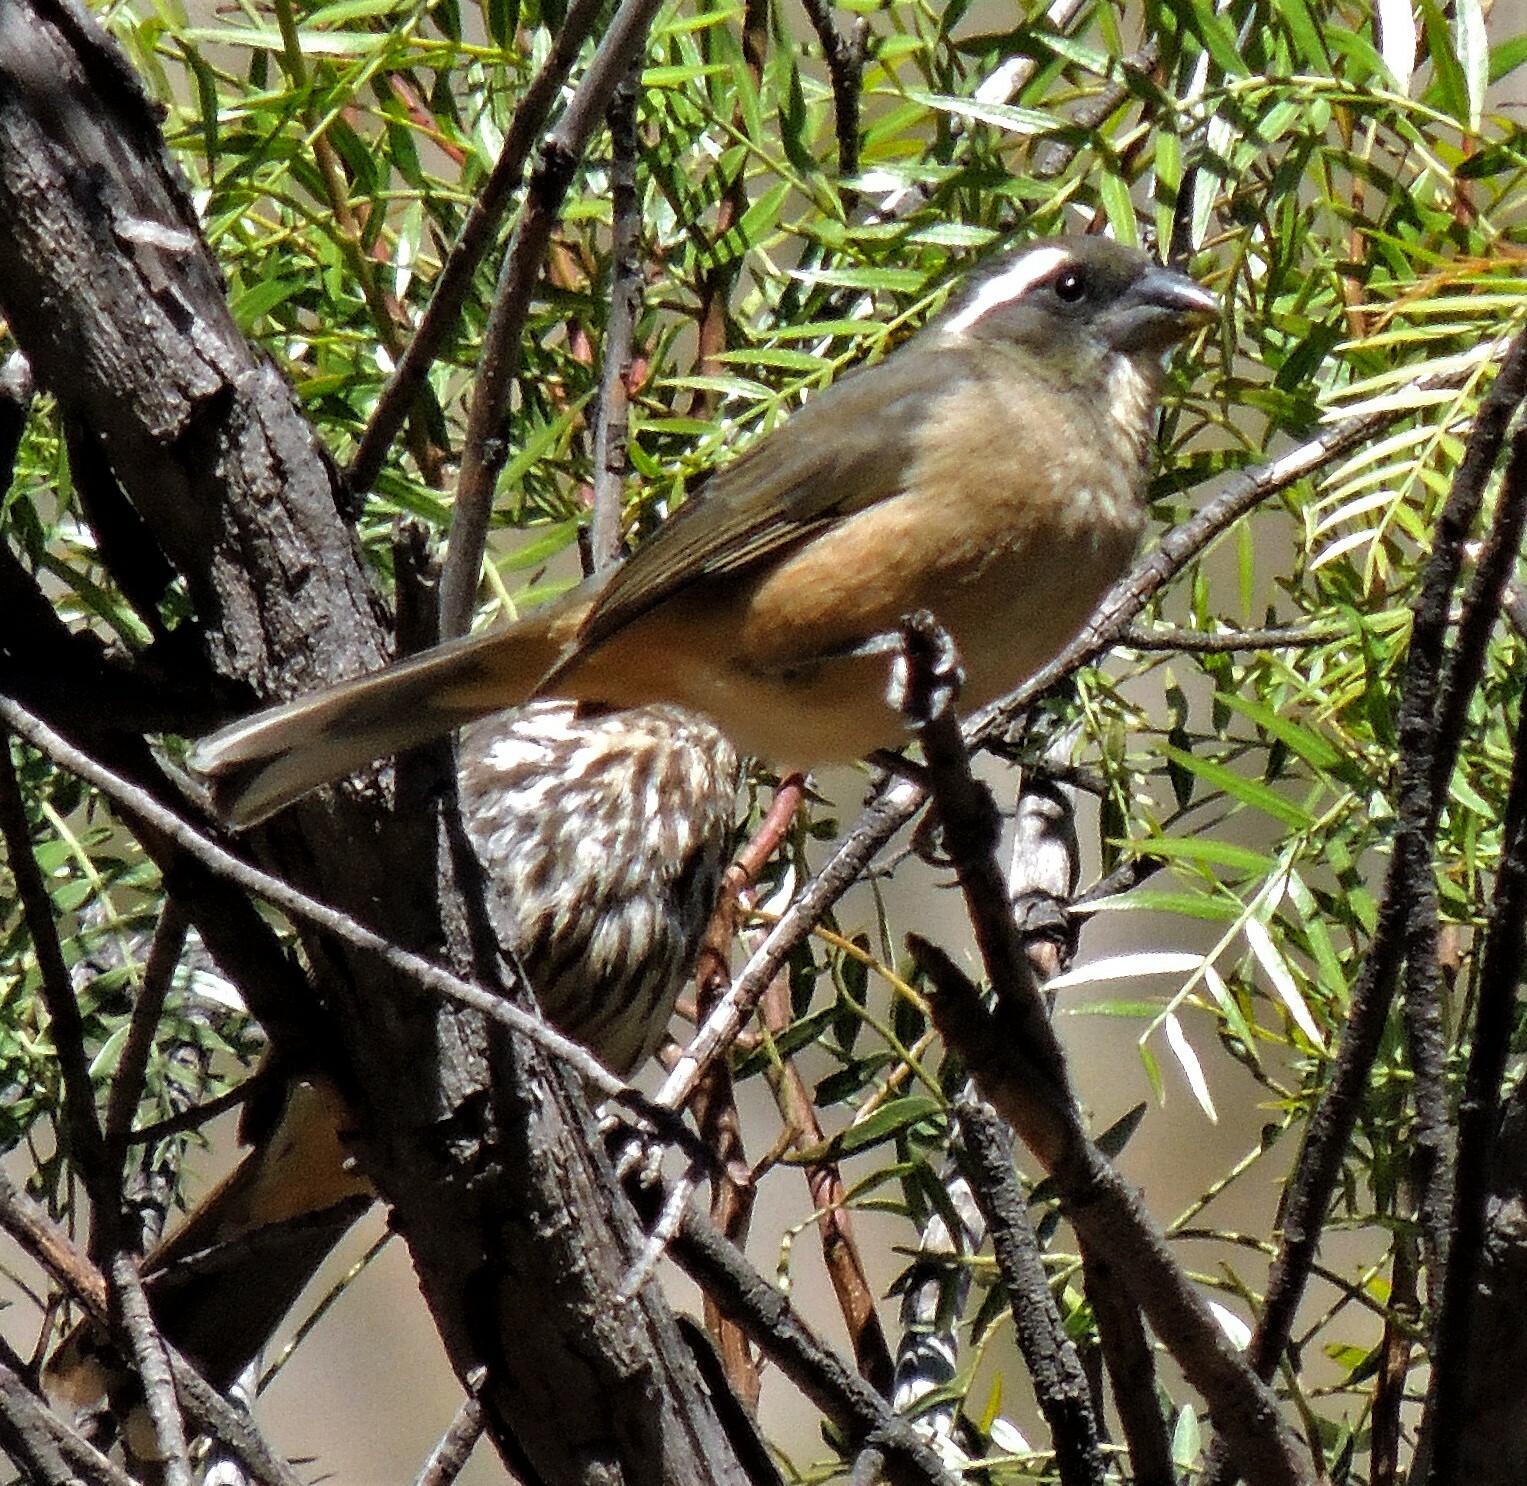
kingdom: Animalia
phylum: Chordata
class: Aves
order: Passeriformes
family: Thraupidae
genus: Saltator
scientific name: Saltator aurantiirostris
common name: Golden-billed saltator
